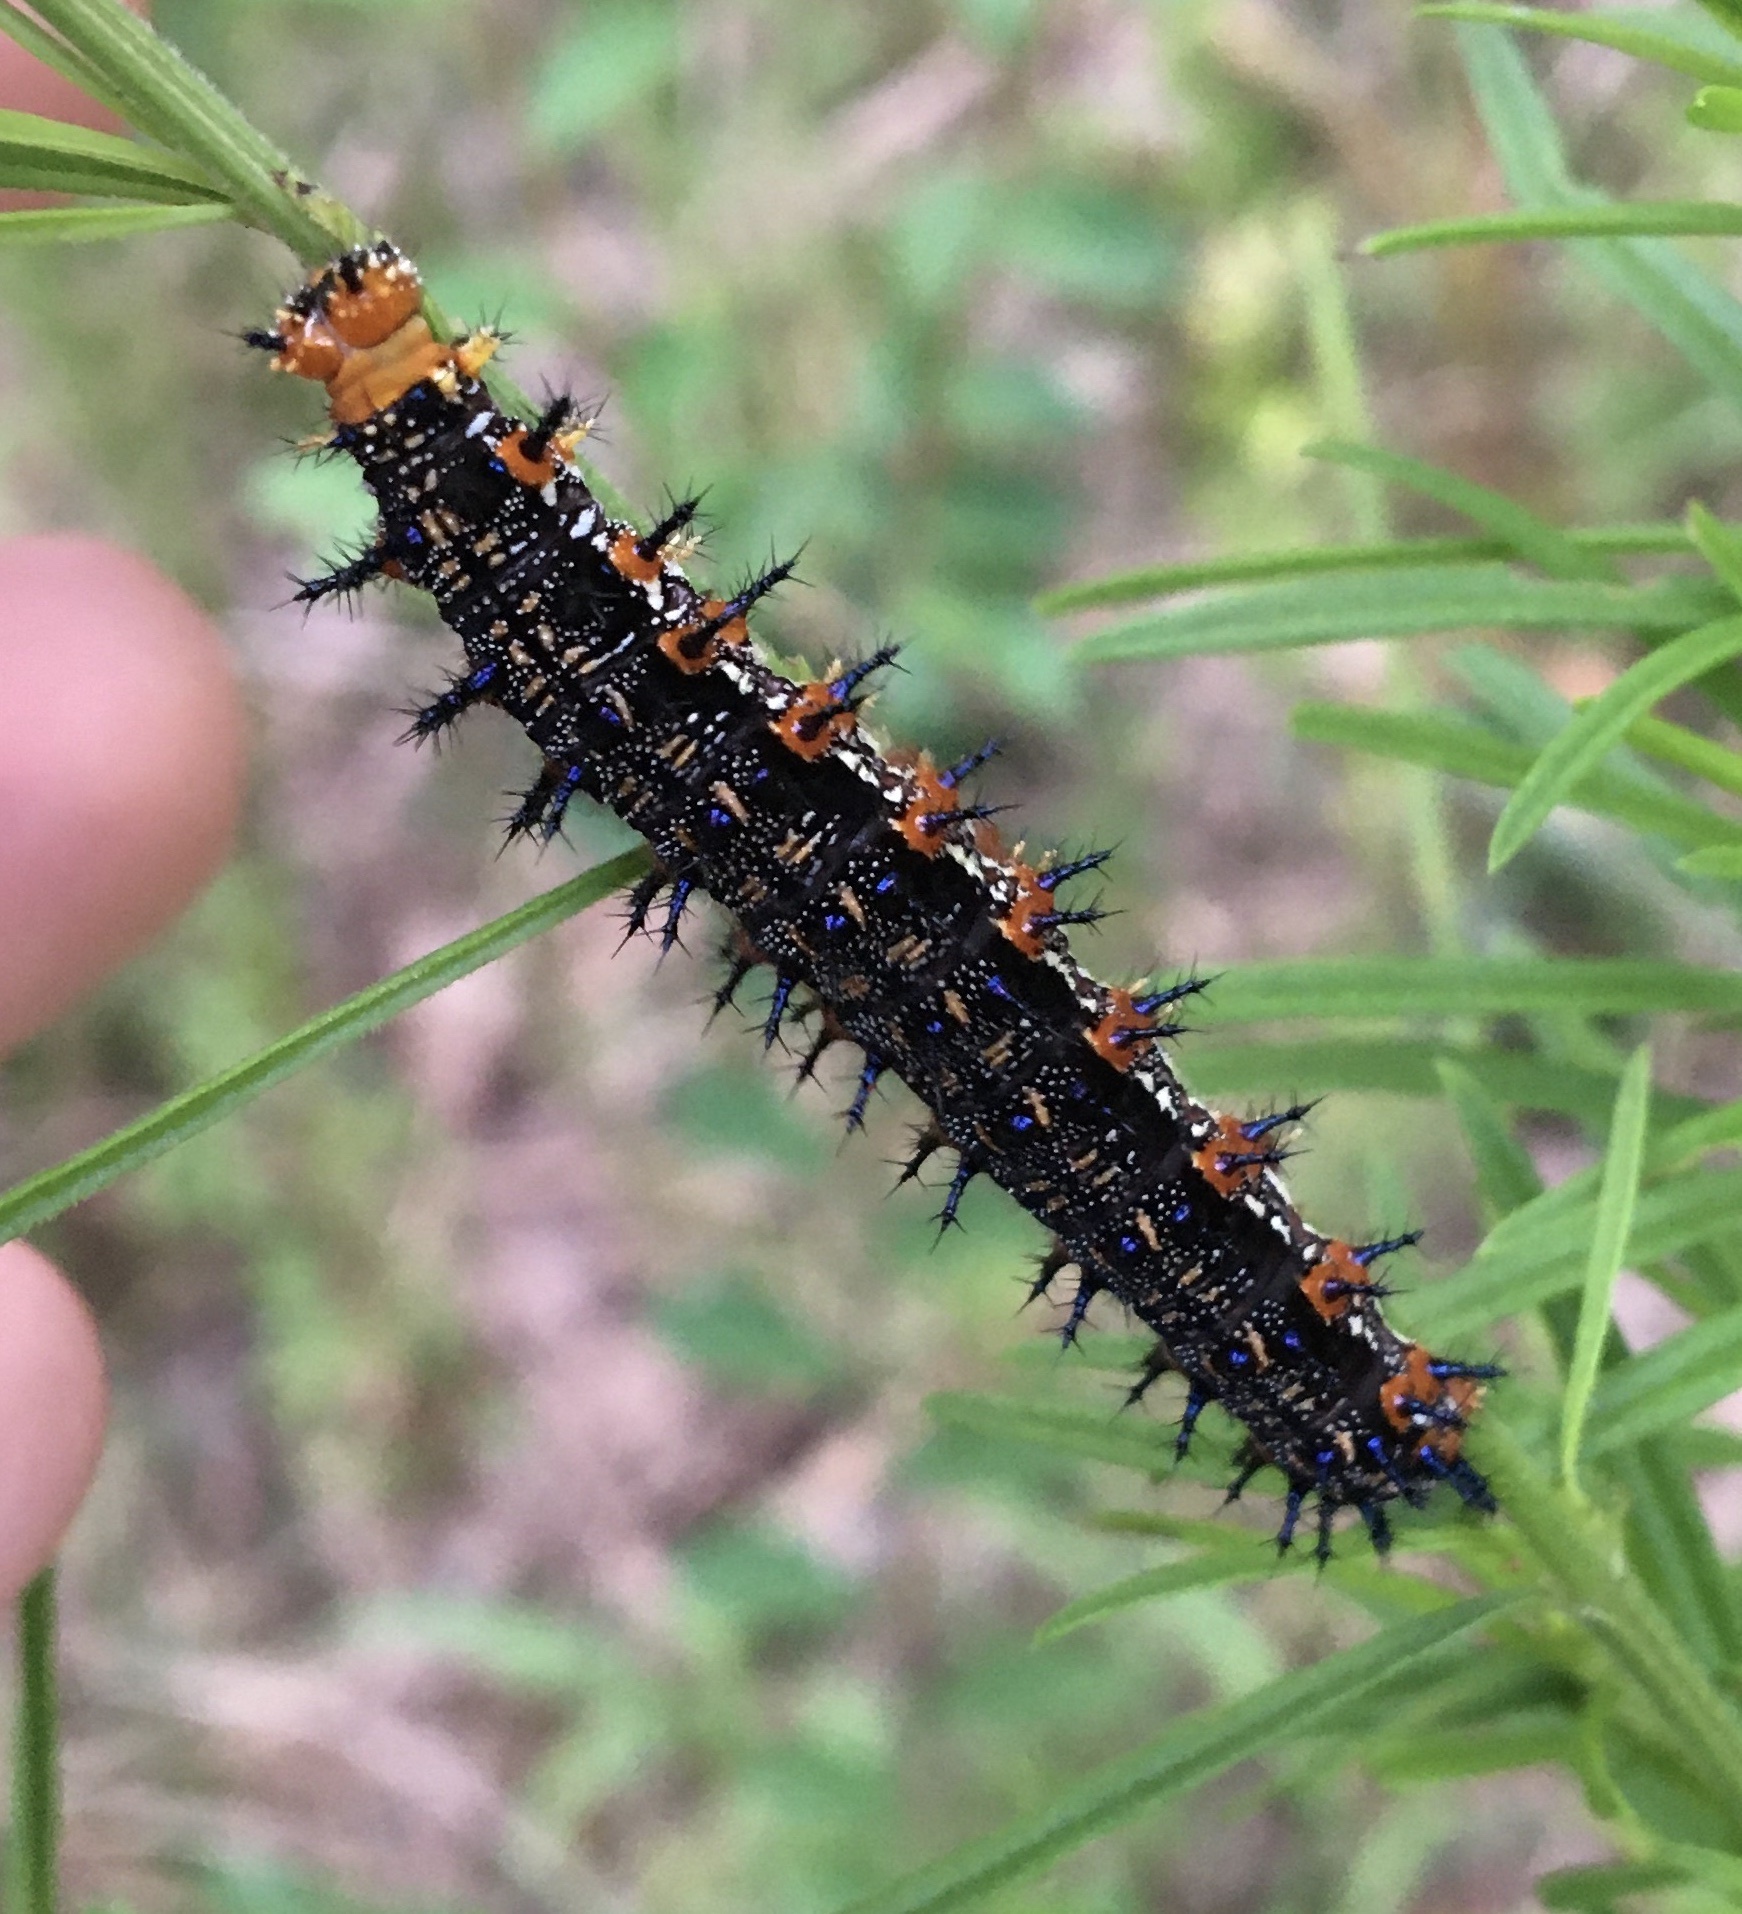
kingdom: Animalia
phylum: Arthropoda
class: Insecta
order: Lepidoptera
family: Nymphalidae
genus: Junonia
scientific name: Junonia coenia
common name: Common buckeye
